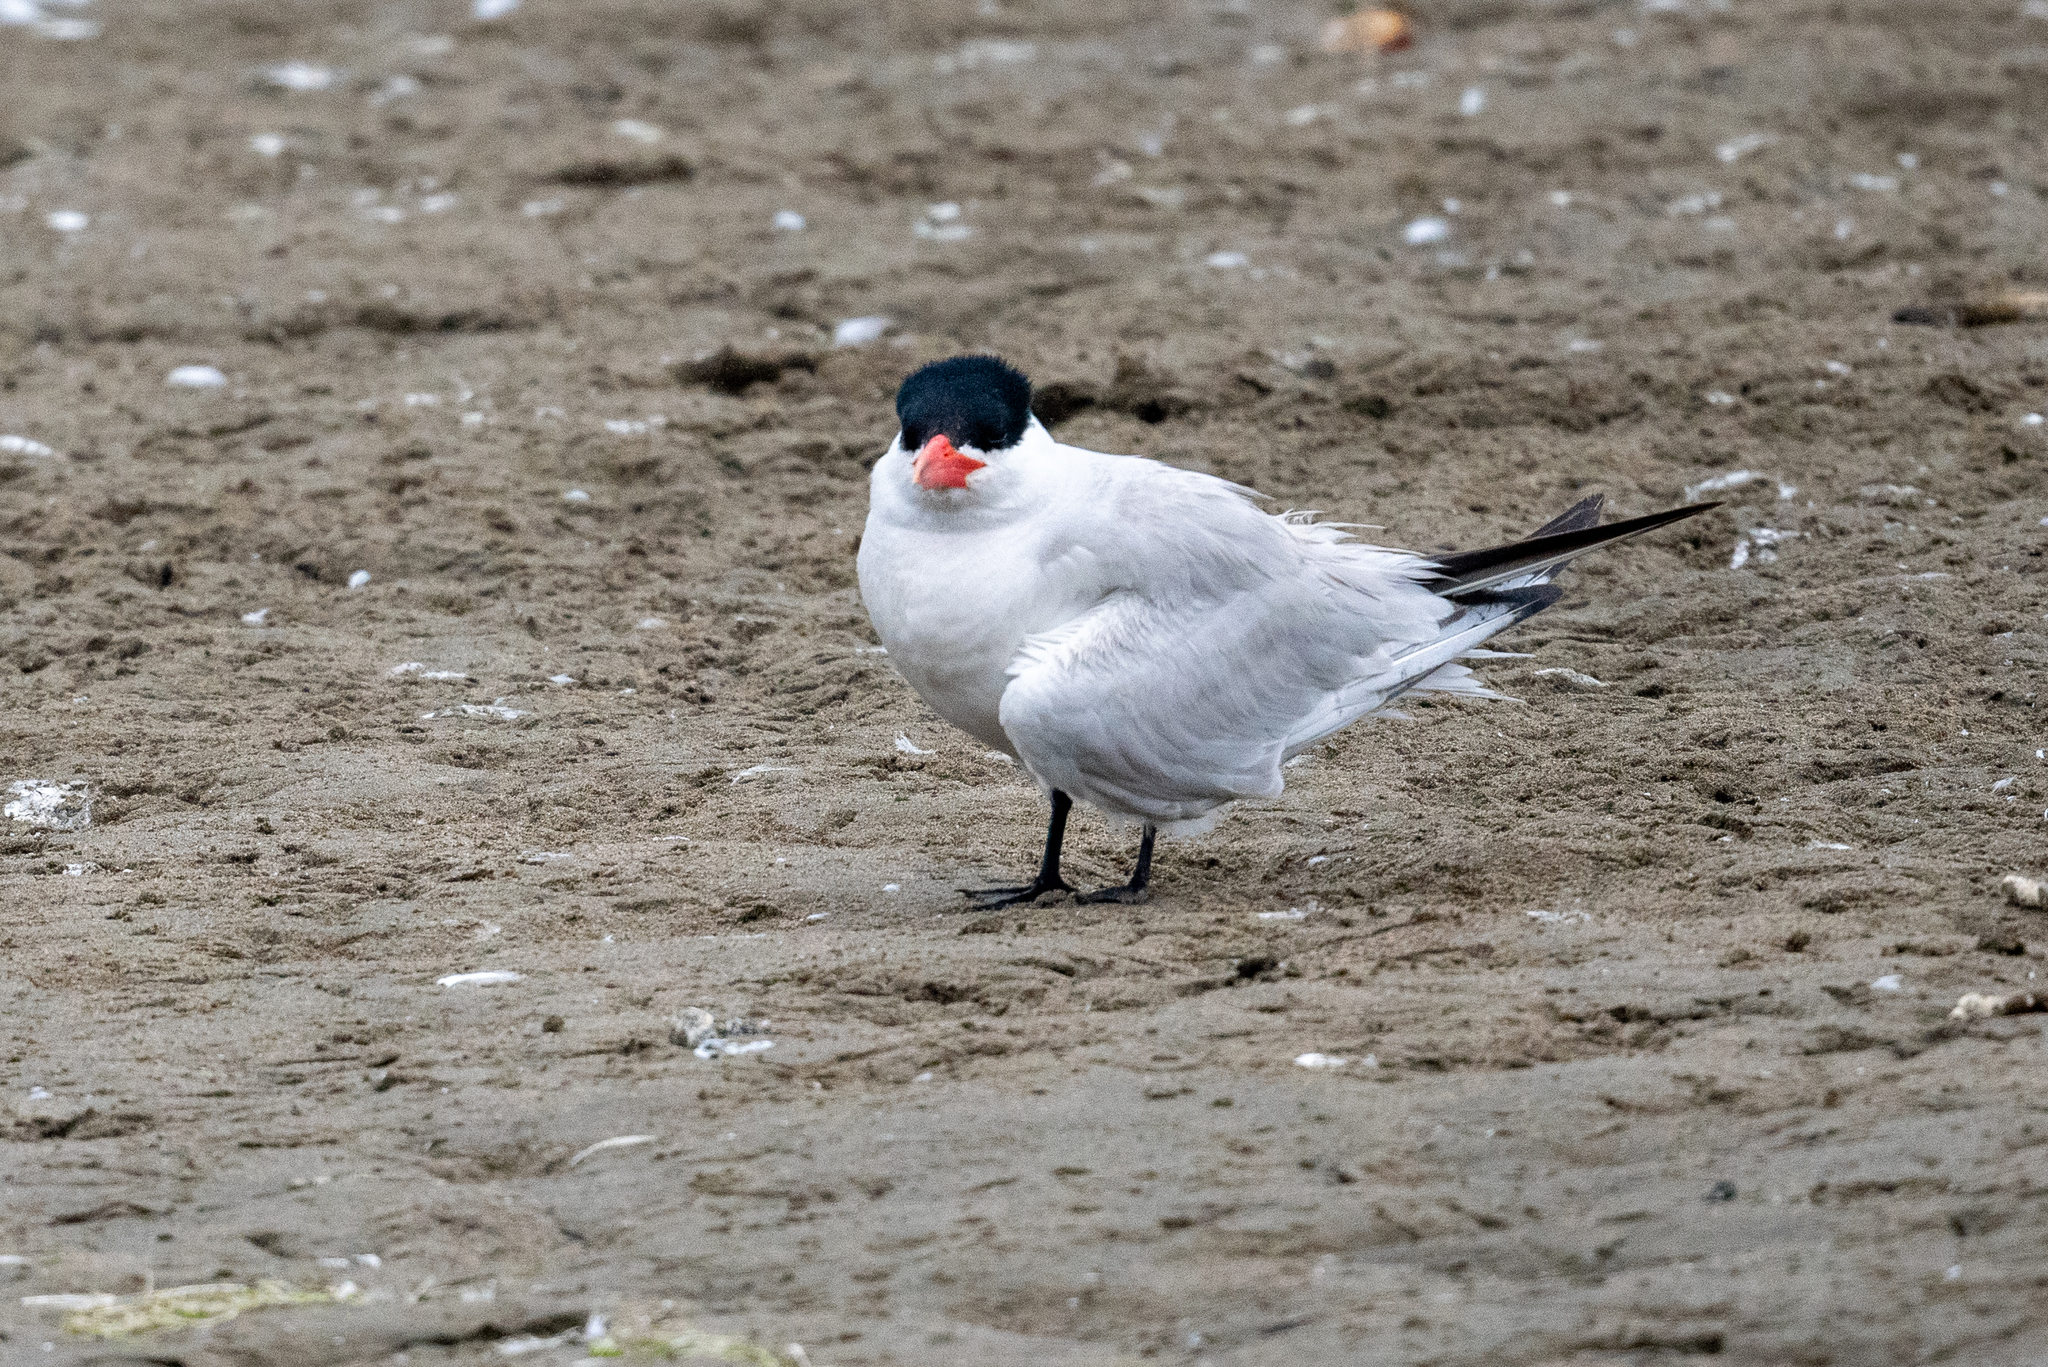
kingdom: Animalia
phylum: Chordata
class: Aves
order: Charadriiformes
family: Laridae
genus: Hydroprogne
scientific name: Hydroprogne caspia
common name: Caspian tern
